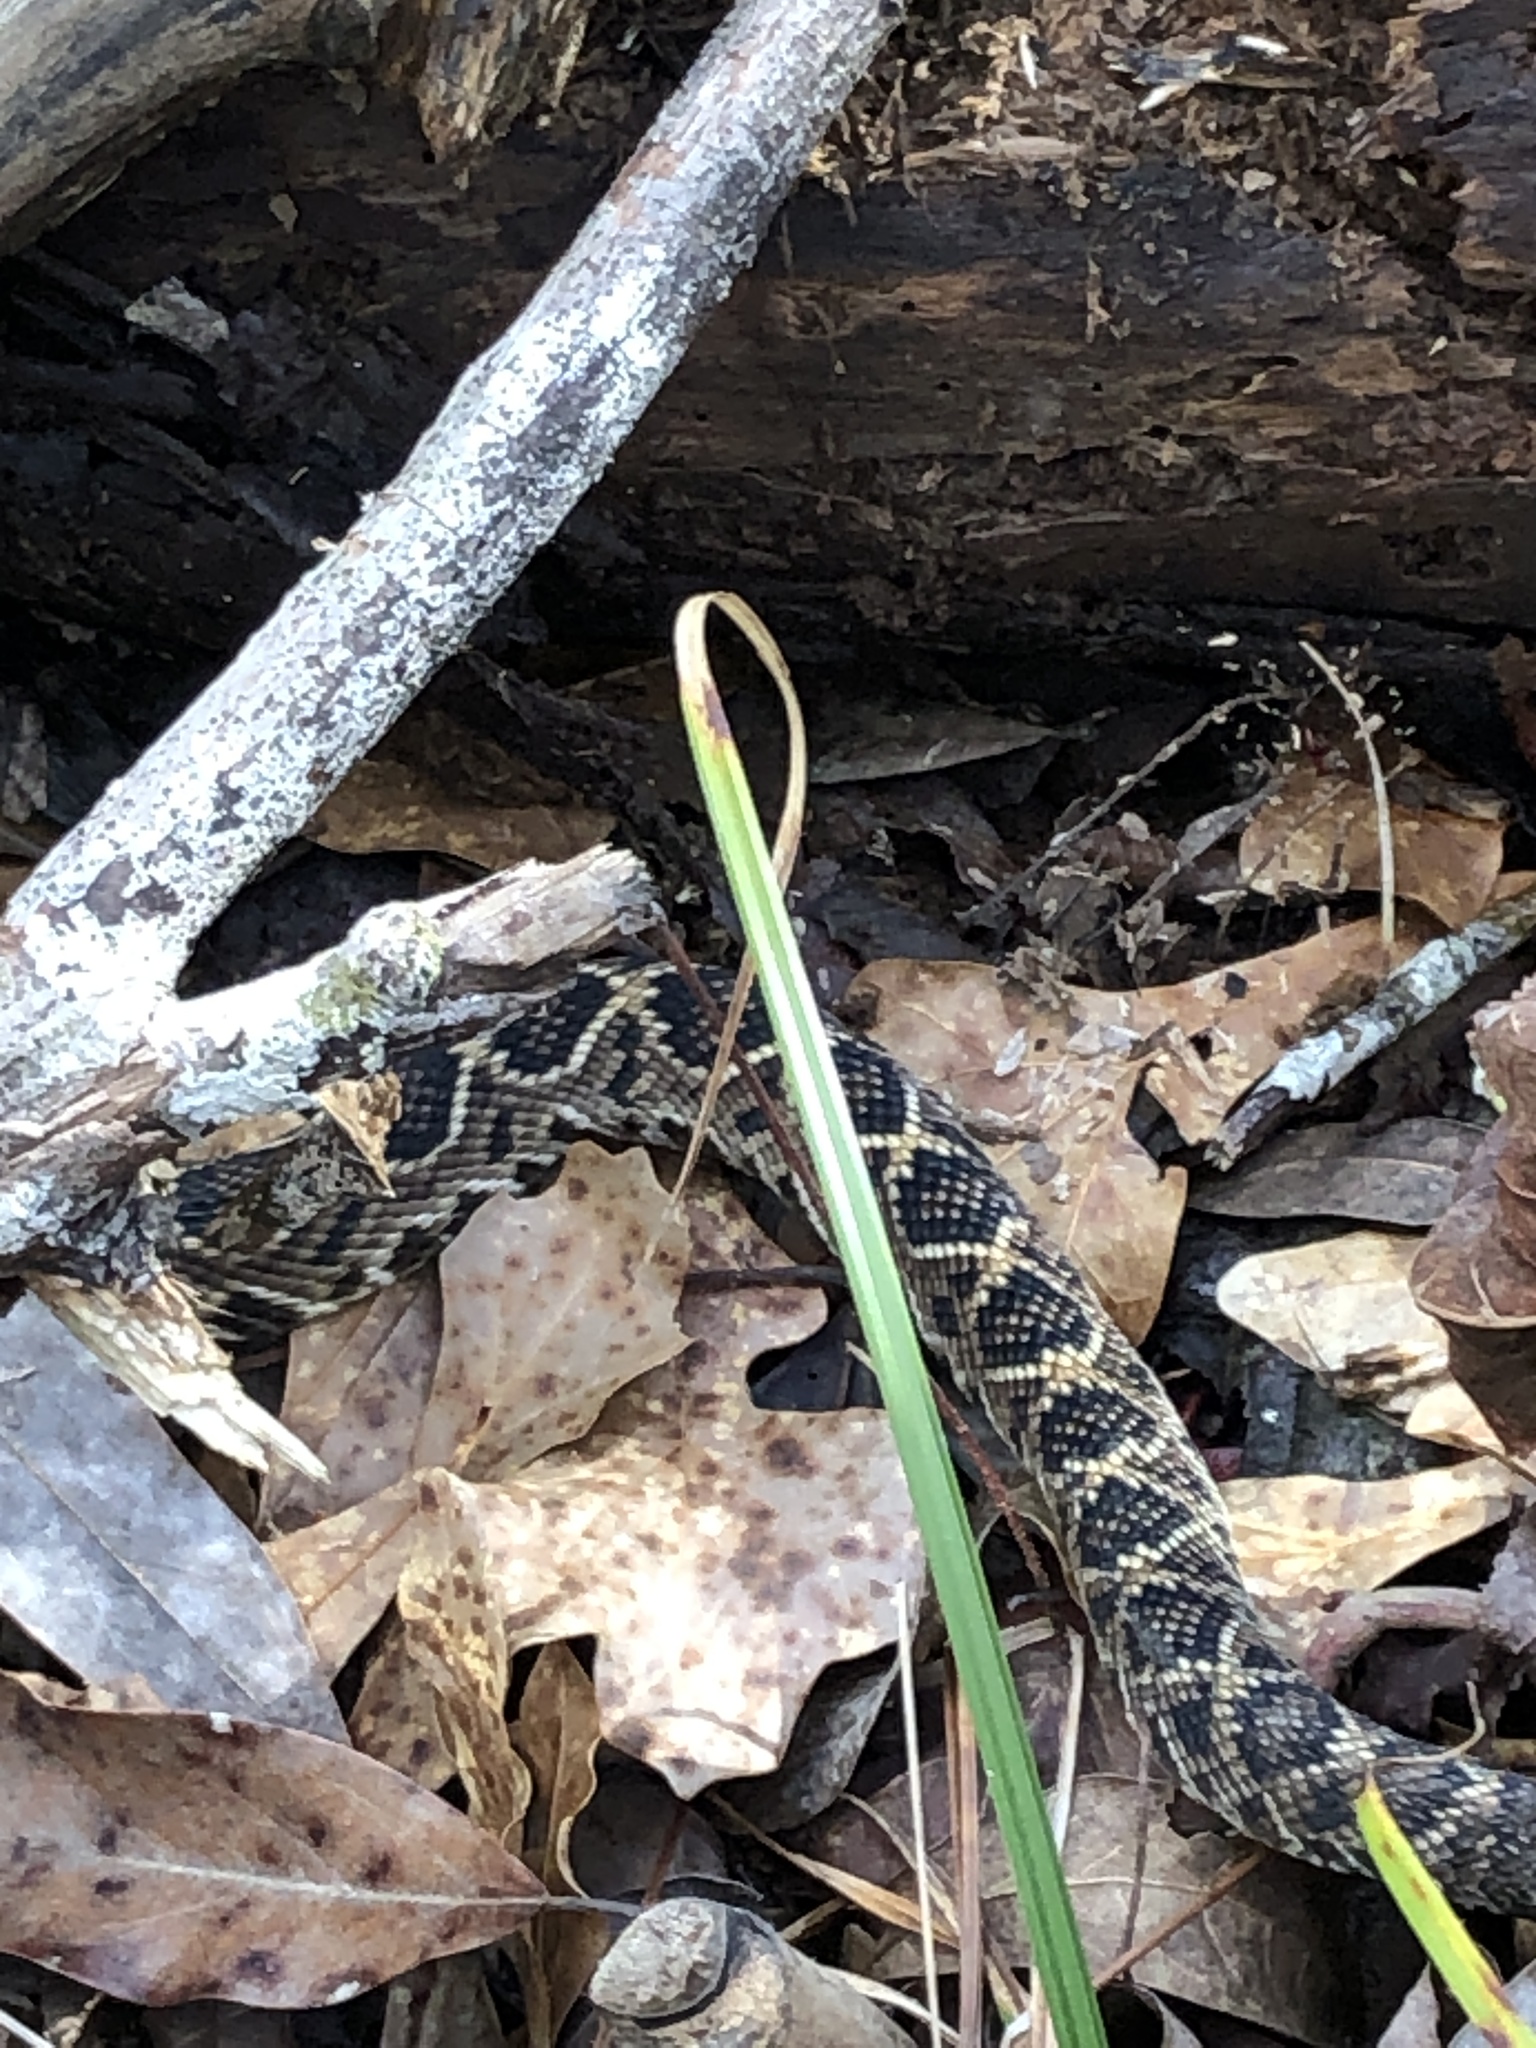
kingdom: Animalia
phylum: Chordata
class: Squamata
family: Viperidae
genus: Crotalus
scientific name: Crotalus adamanteus
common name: Eastern diamondback rattlesnake
